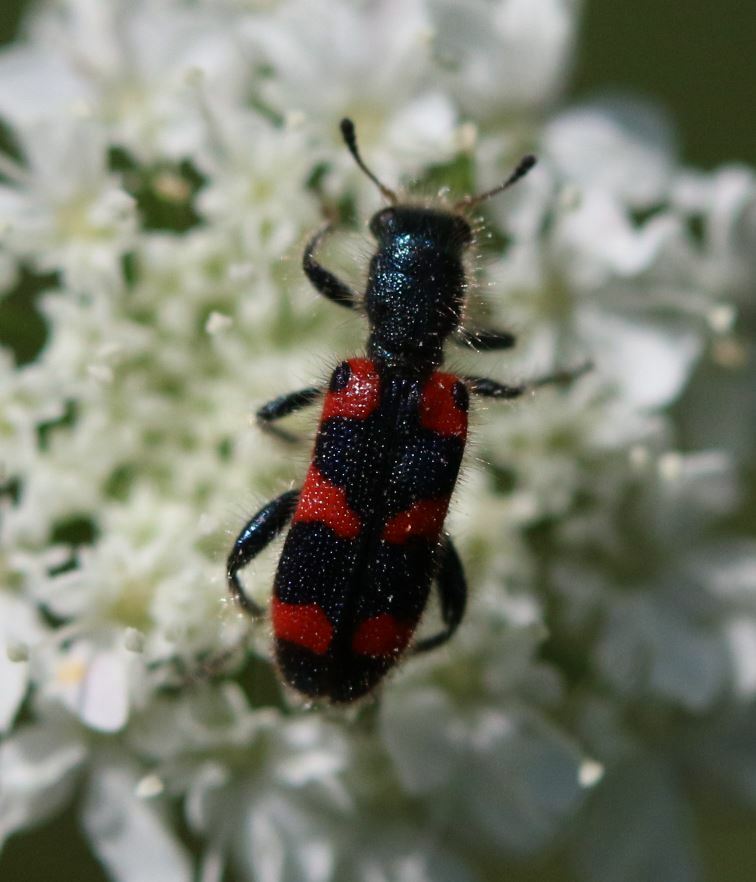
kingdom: Animalia
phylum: Arthropoda
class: Insecta
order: Coleoptera
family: Cleridae
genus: Trichodes
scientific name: Trichodes leucopsideus
